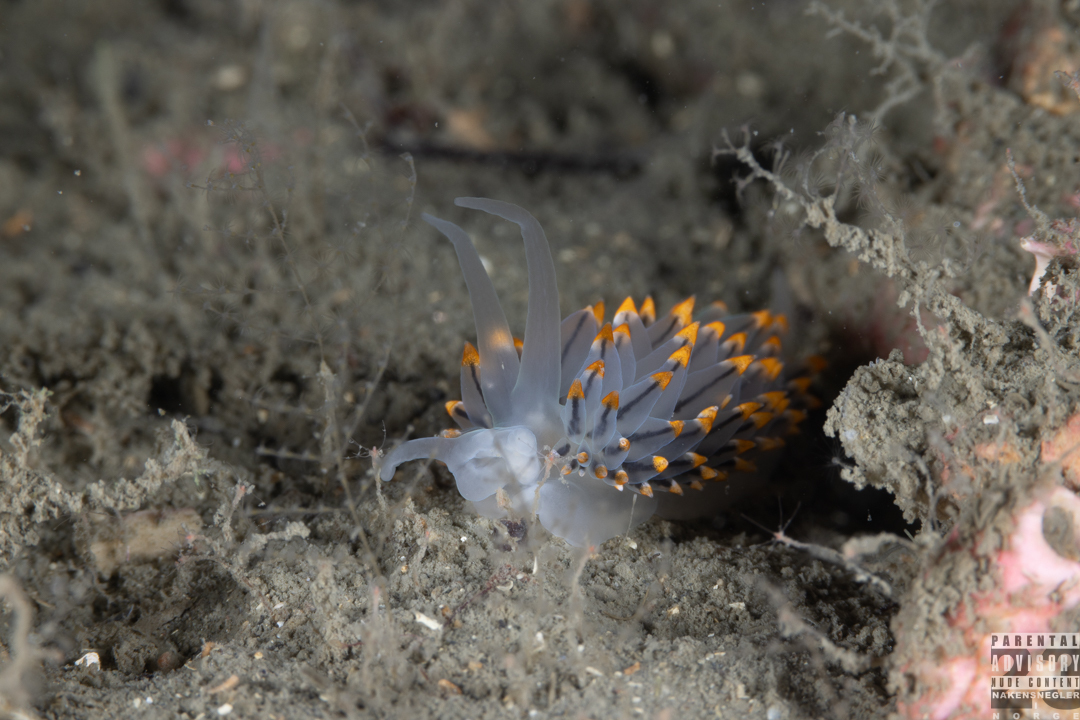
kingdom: Animalia
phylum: Mollusca
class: Gastropoda
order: Nudibranchia
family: Eubranchidae
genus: Eubranchus
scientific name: Eubranchus tricolor
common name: Painted balloon aeolis
